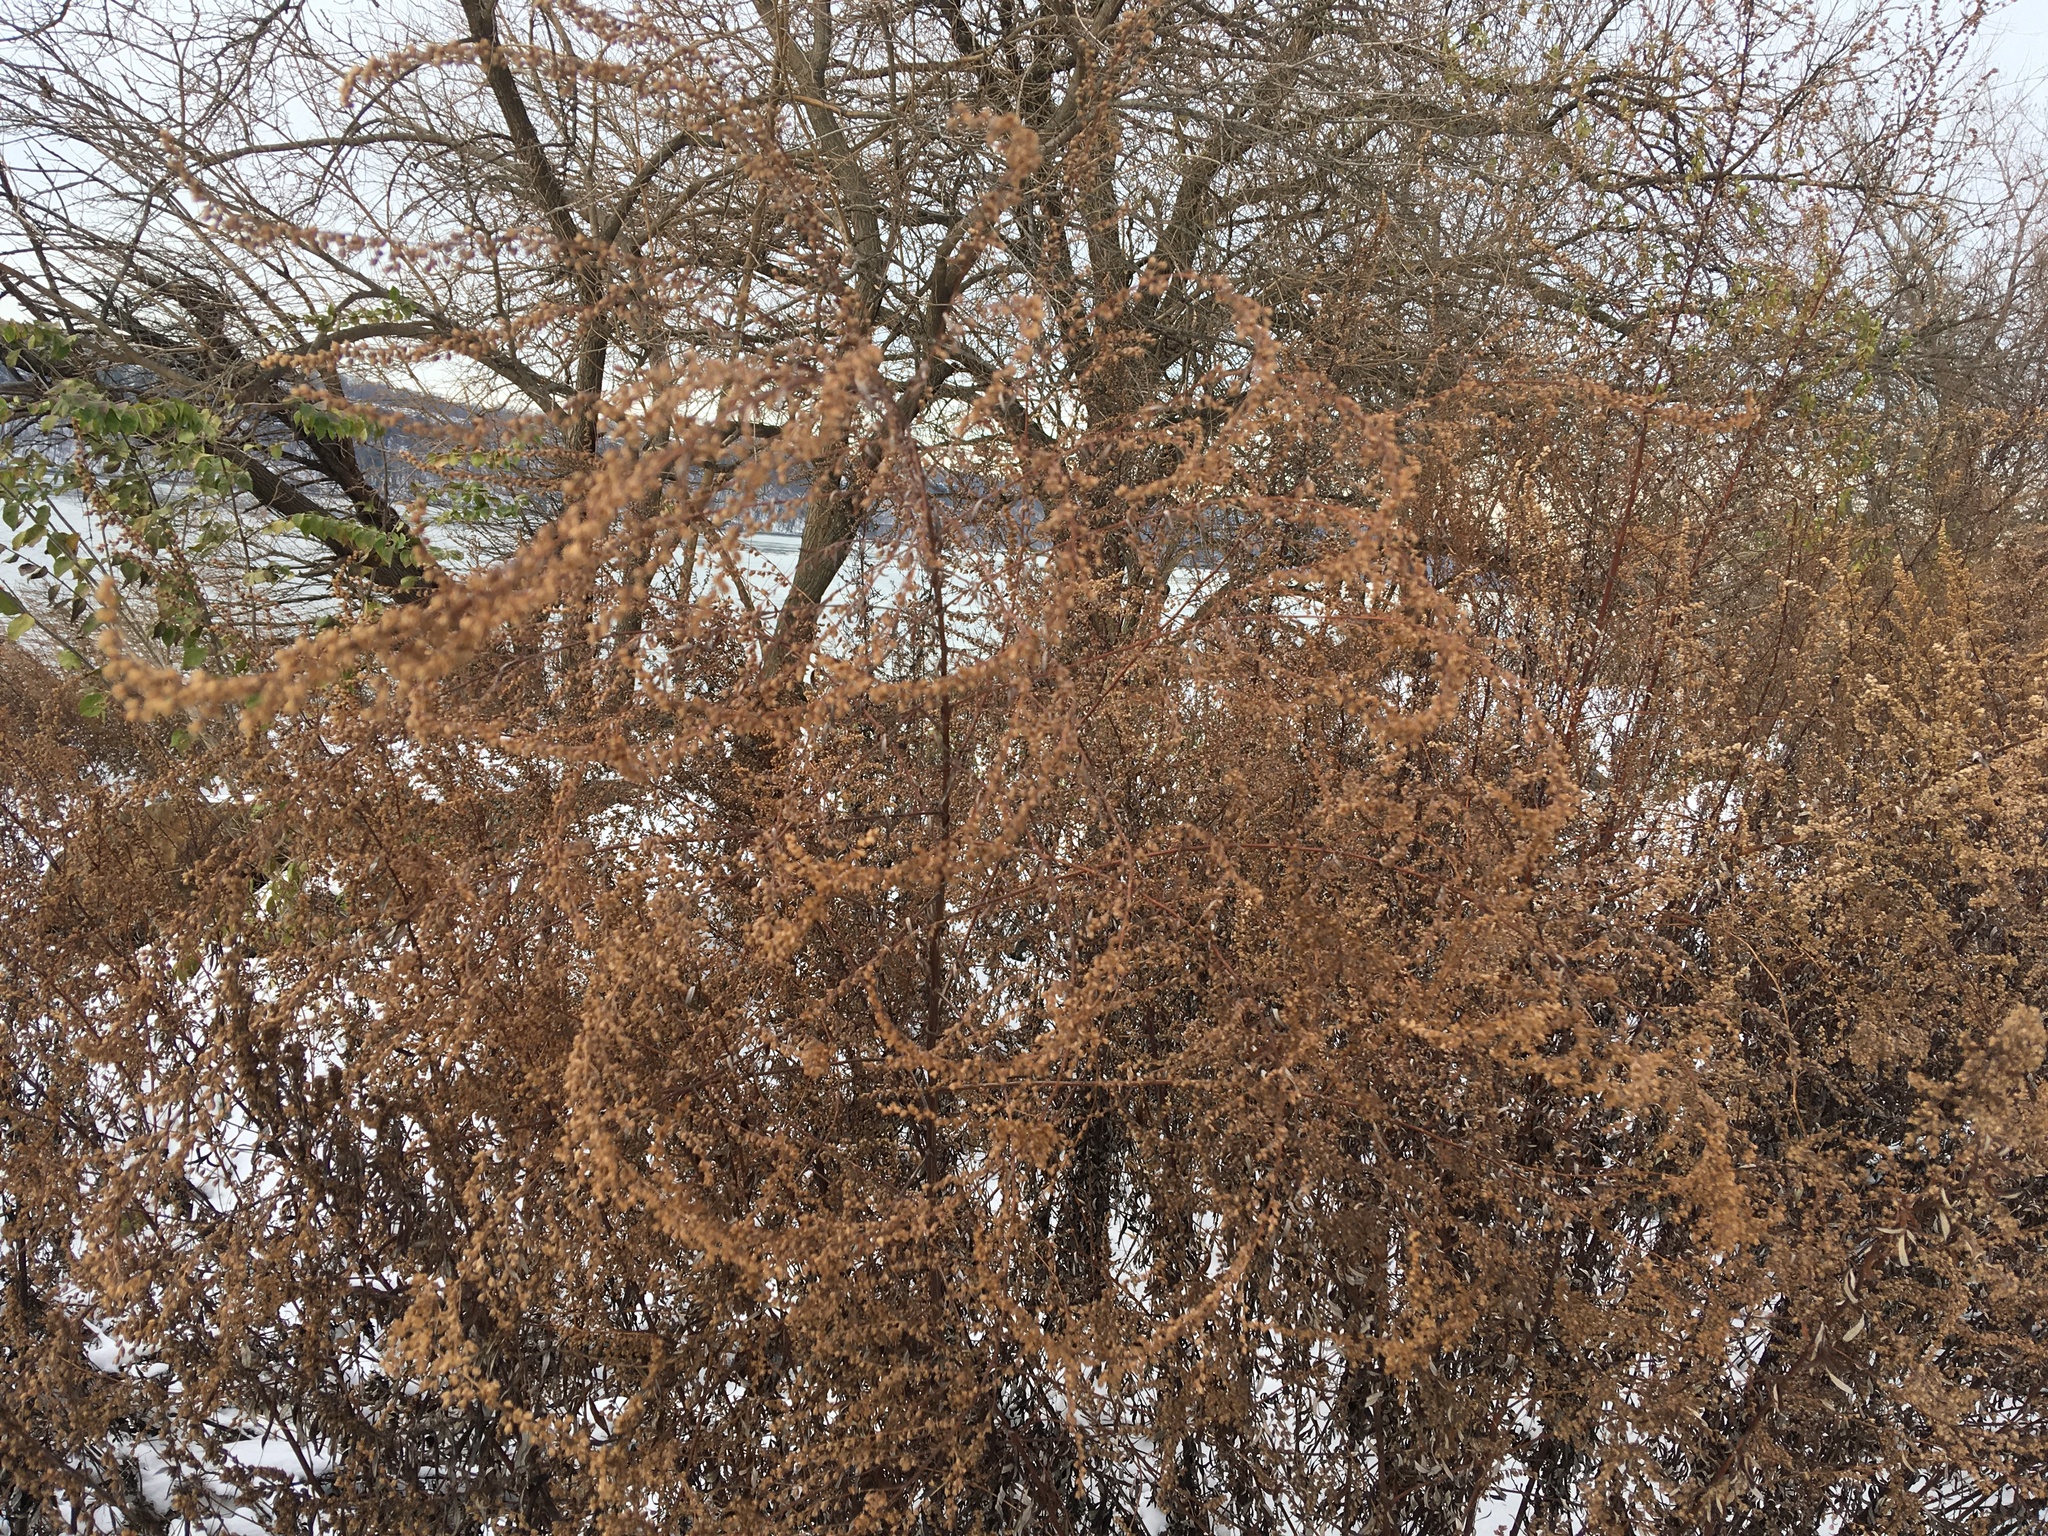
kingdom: Plantae
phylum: Tracheophyta
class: Magnoliopsida
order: Asterales
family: Asteraceae
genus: Artemisia
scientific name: Artemisia vulgaris
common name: Mugwort
